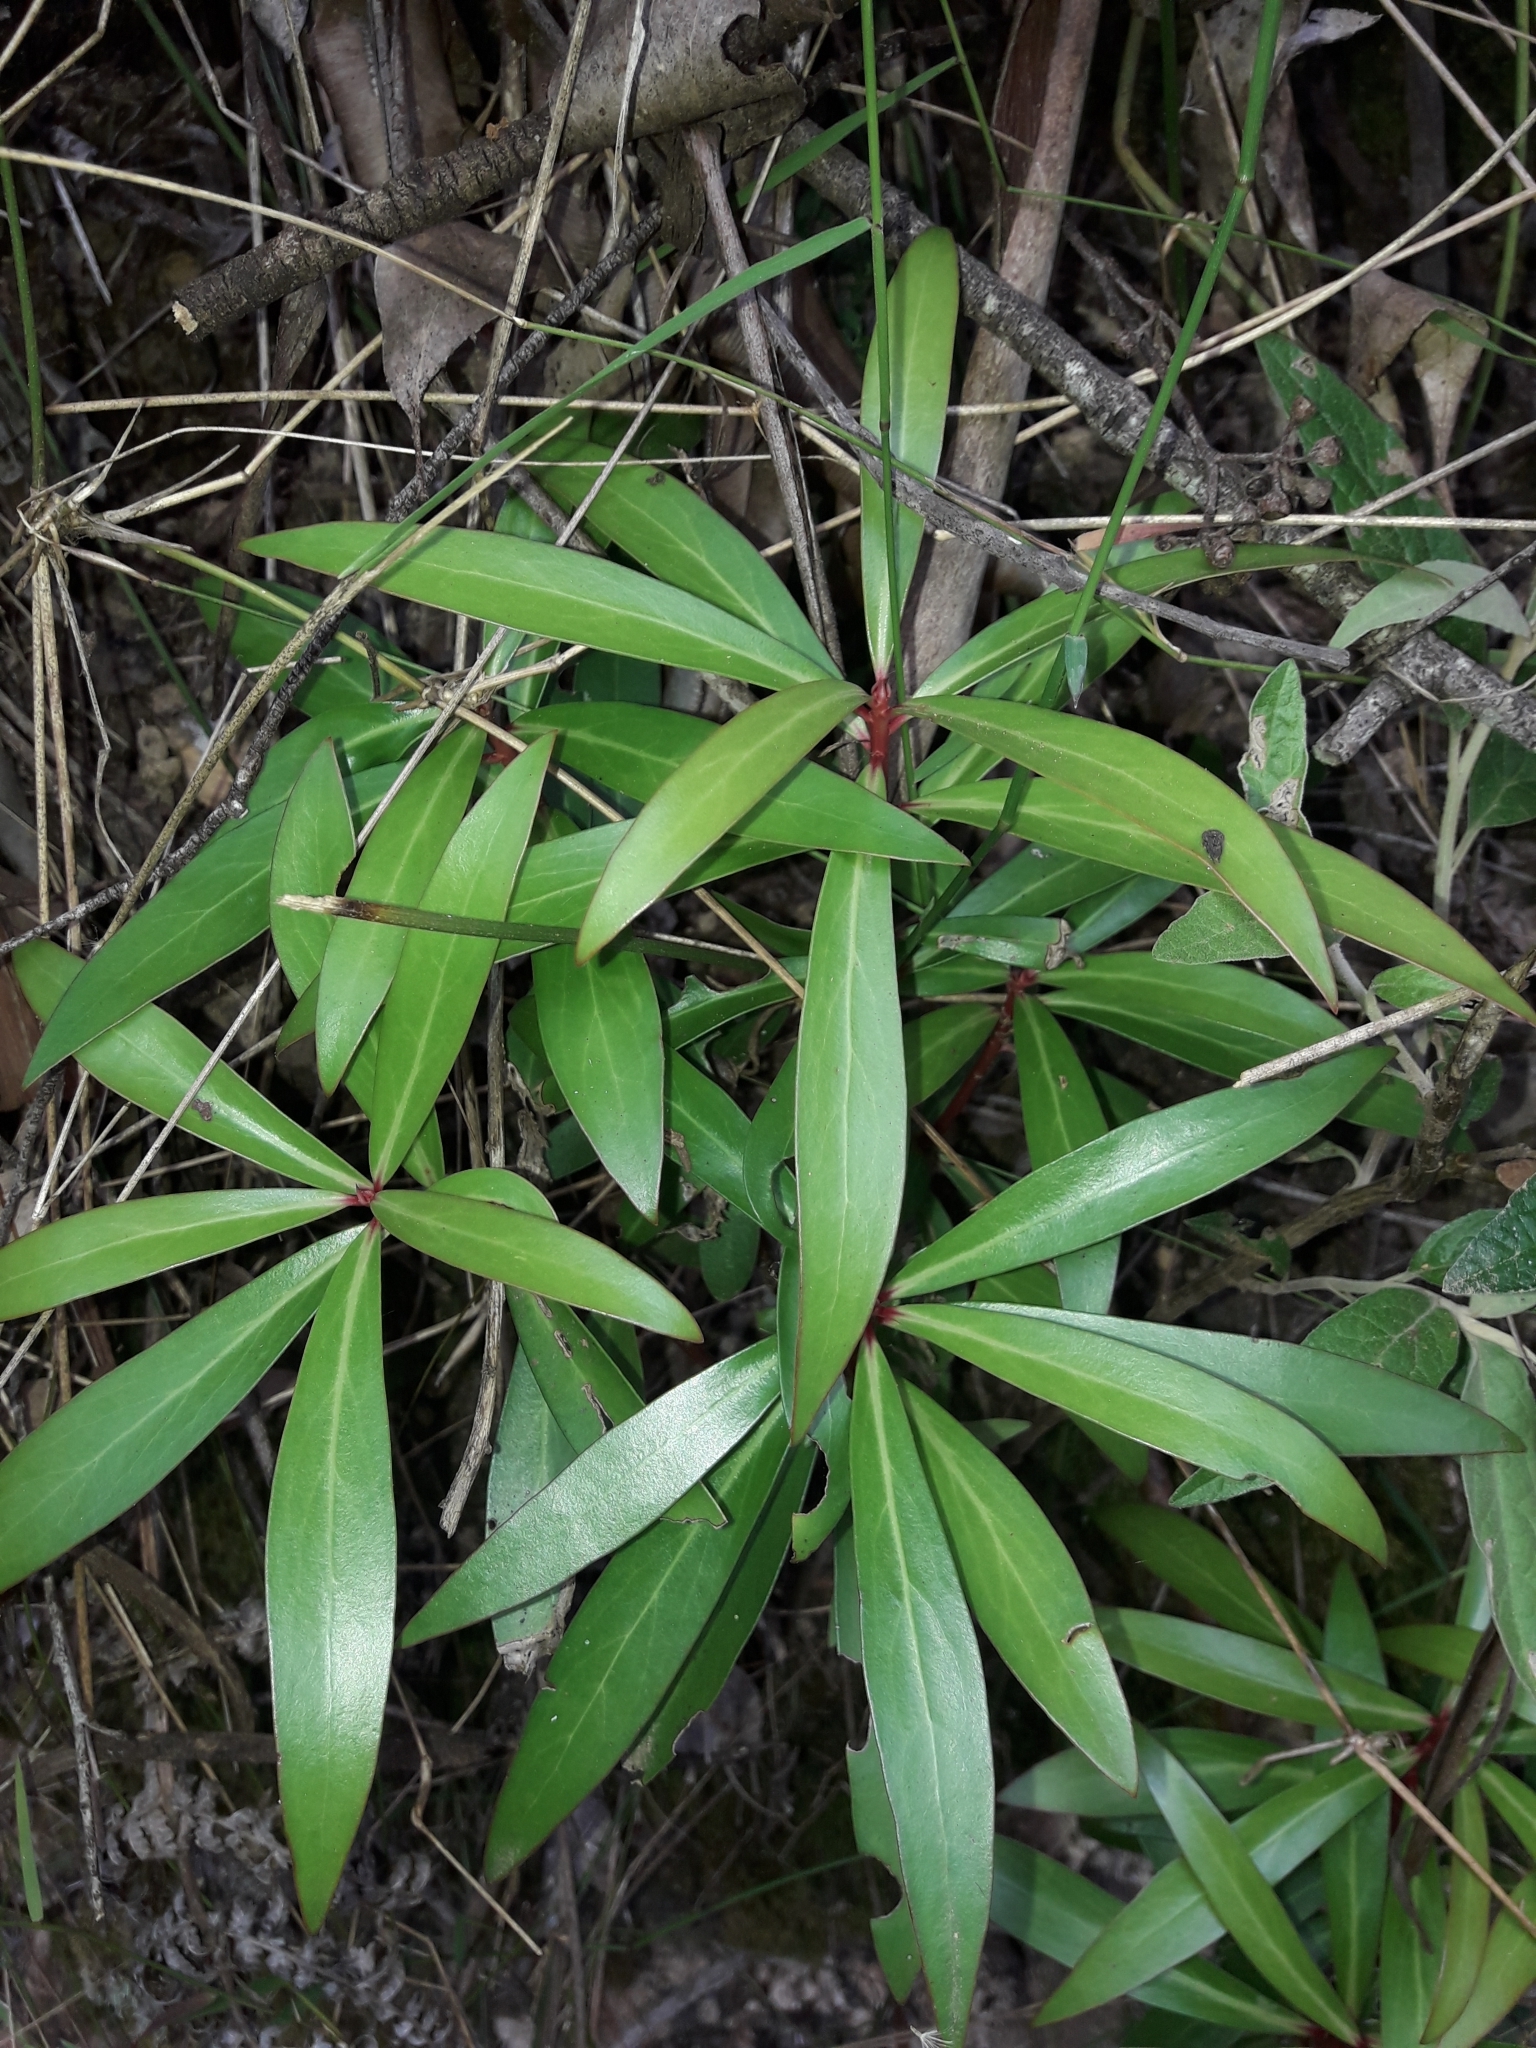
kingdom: Plantae
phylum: Tracheophyta
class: Magnoliopsida
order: Canellales
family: Winteraceae
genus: Drimys
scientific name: Drimys aromatica
